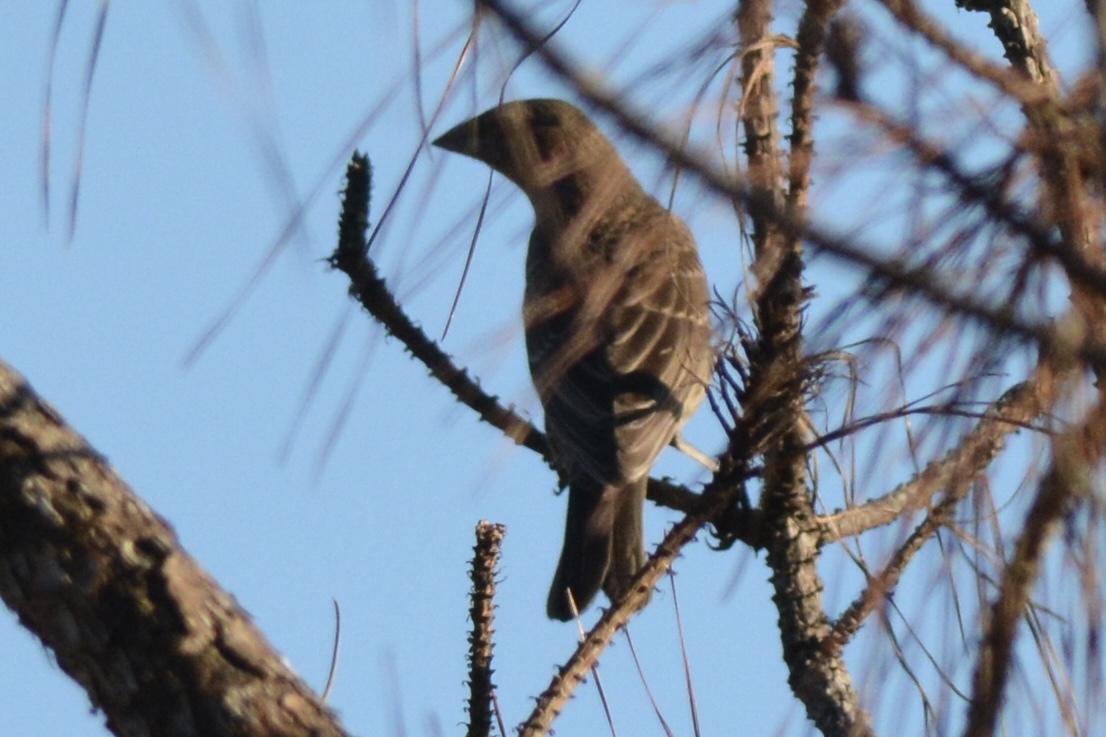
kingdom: Animalia
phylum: Chordata
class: Aves
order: Passeriformes
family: Cardinalidae
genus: Passerina
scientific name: Passerina caerulea
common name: Blue grosbeak
